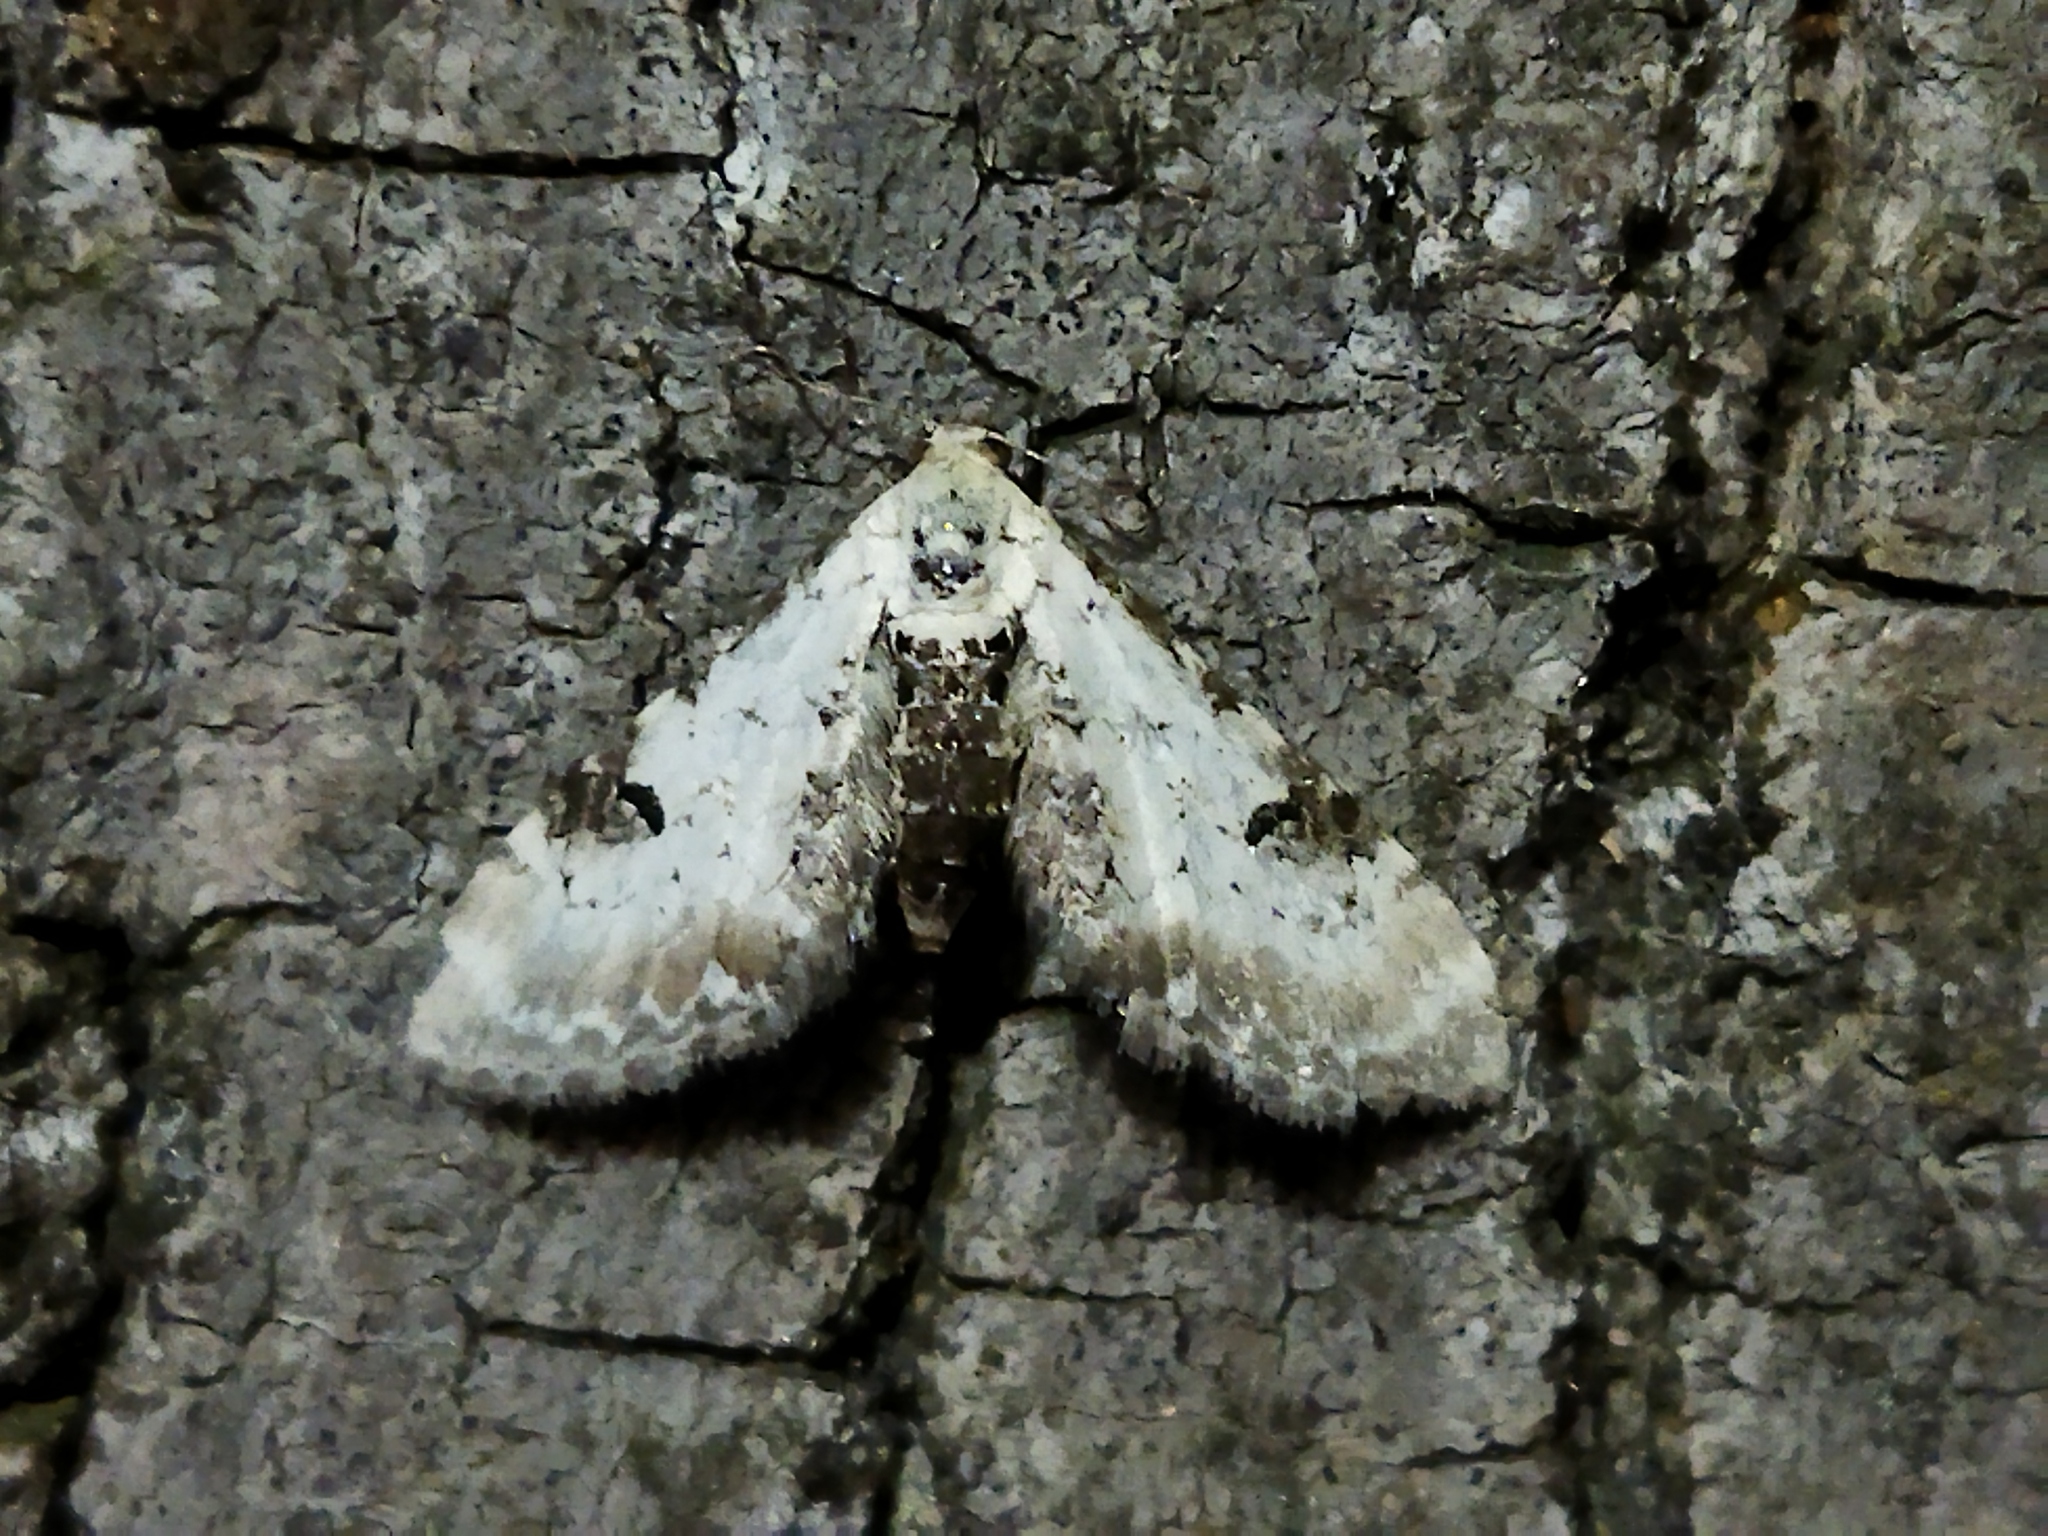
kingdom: Animalia
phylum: Arthropoda
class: Insecta
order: Lepidoptera
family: Geometridae
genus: Eupithecia
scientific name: Eupithecia centaureata
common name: Lime-speck pug
